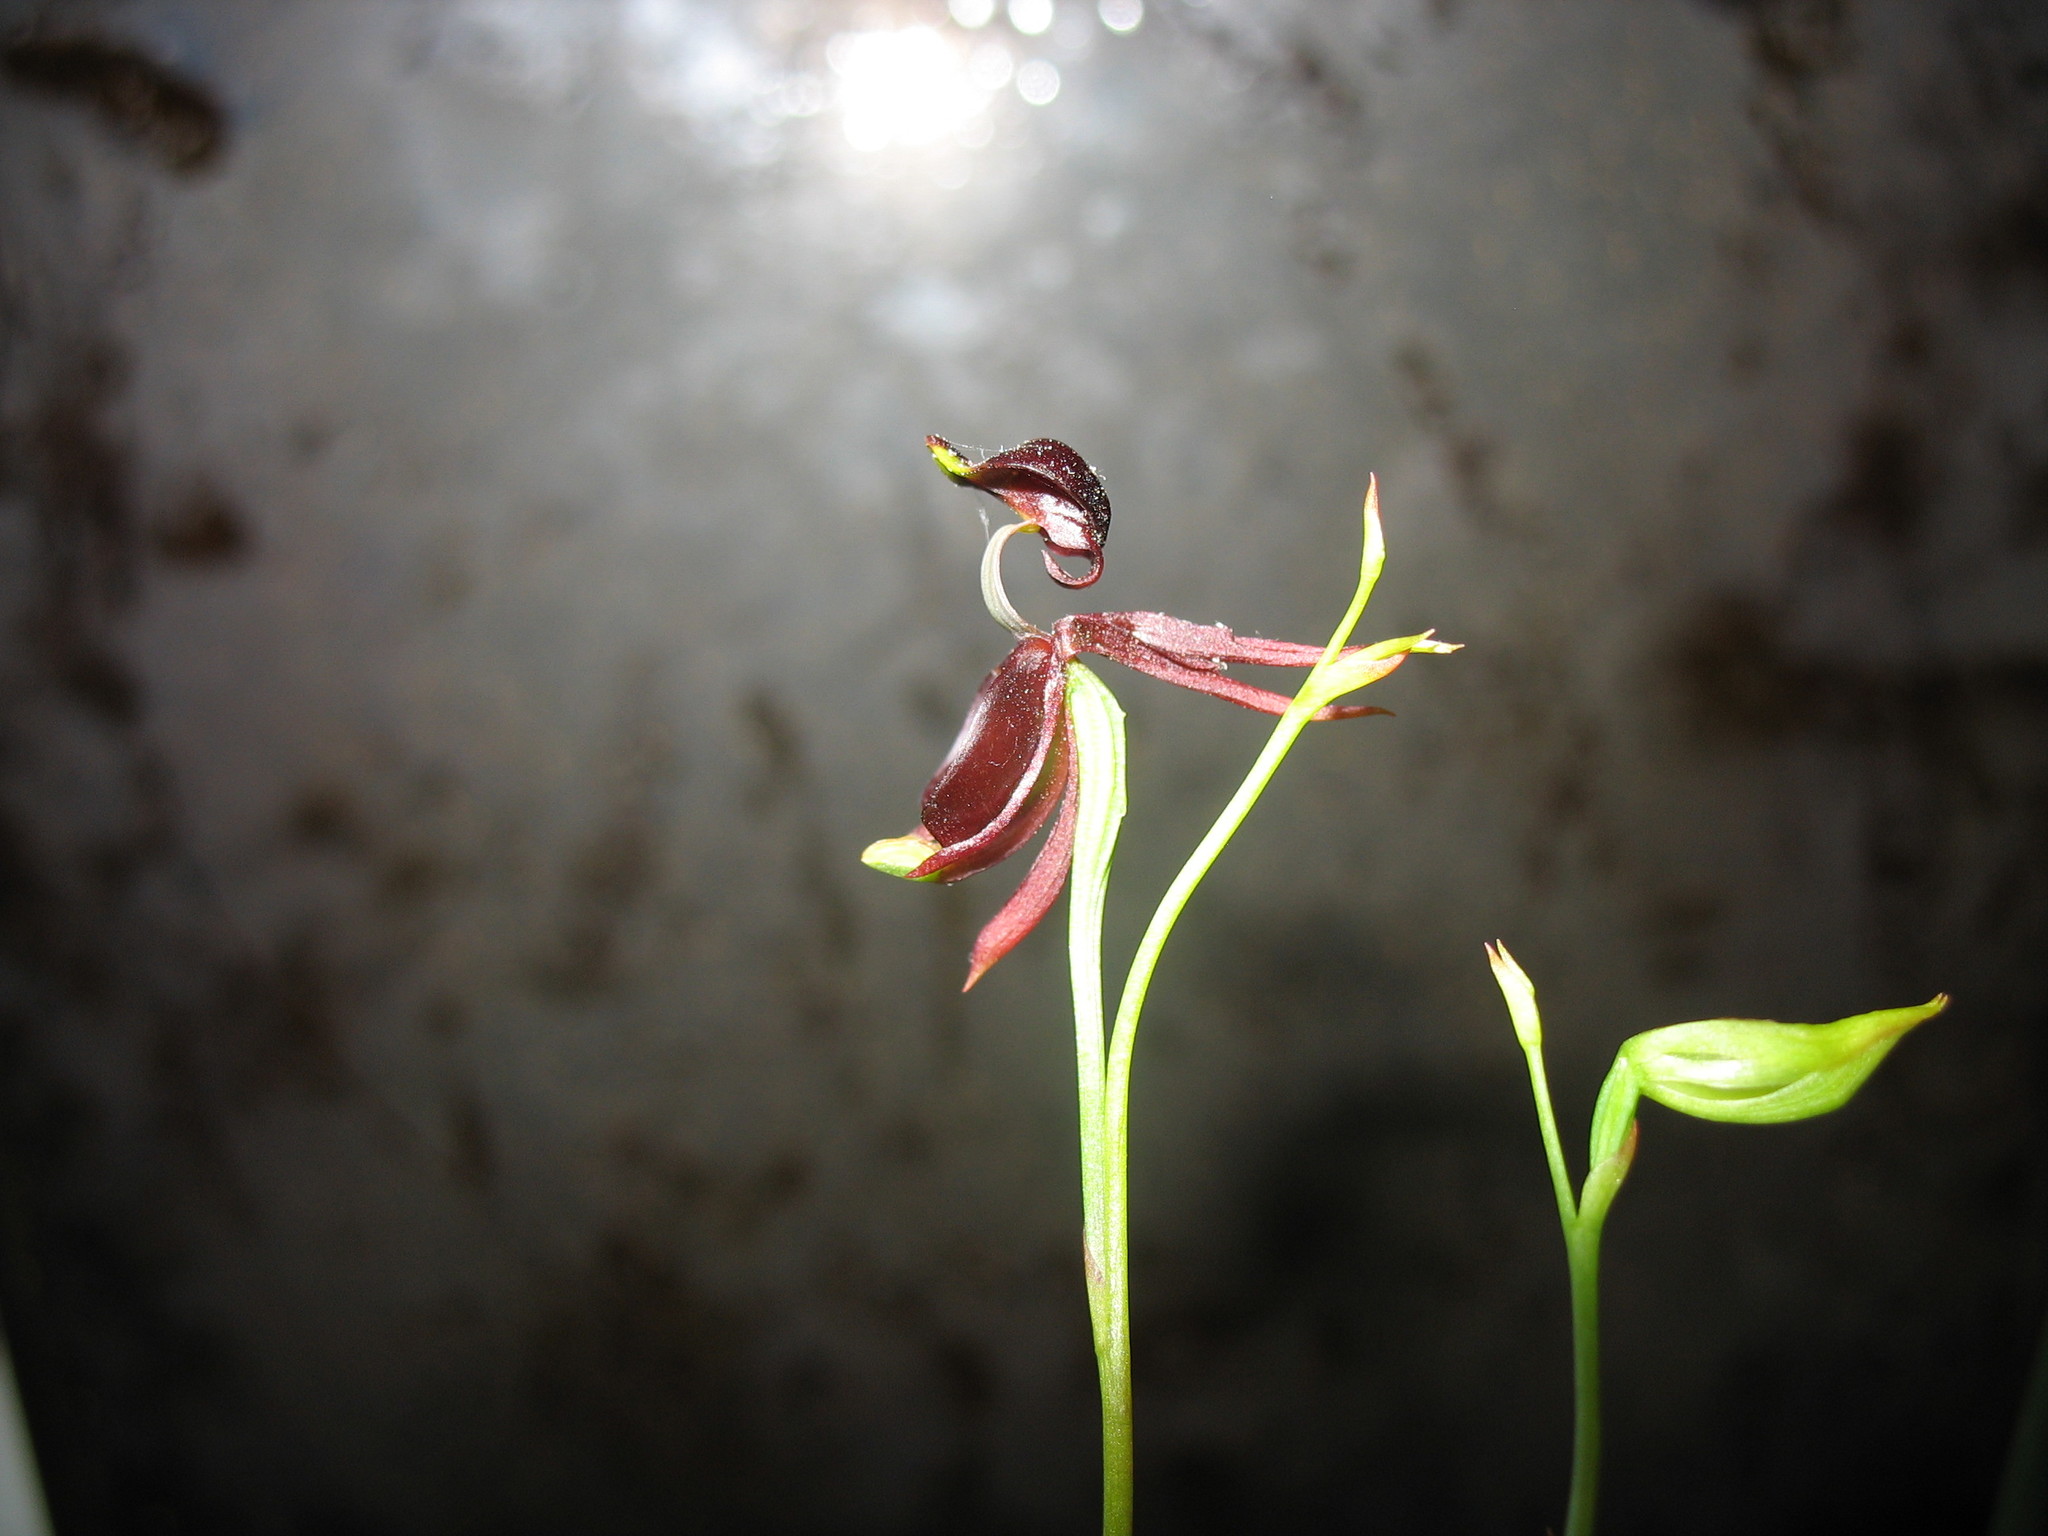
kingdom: Plantae
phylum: Tracheophyta
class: Liliopsida
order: Asparagales
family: Orchidaceae
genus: Caleana
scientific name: Caleana major
